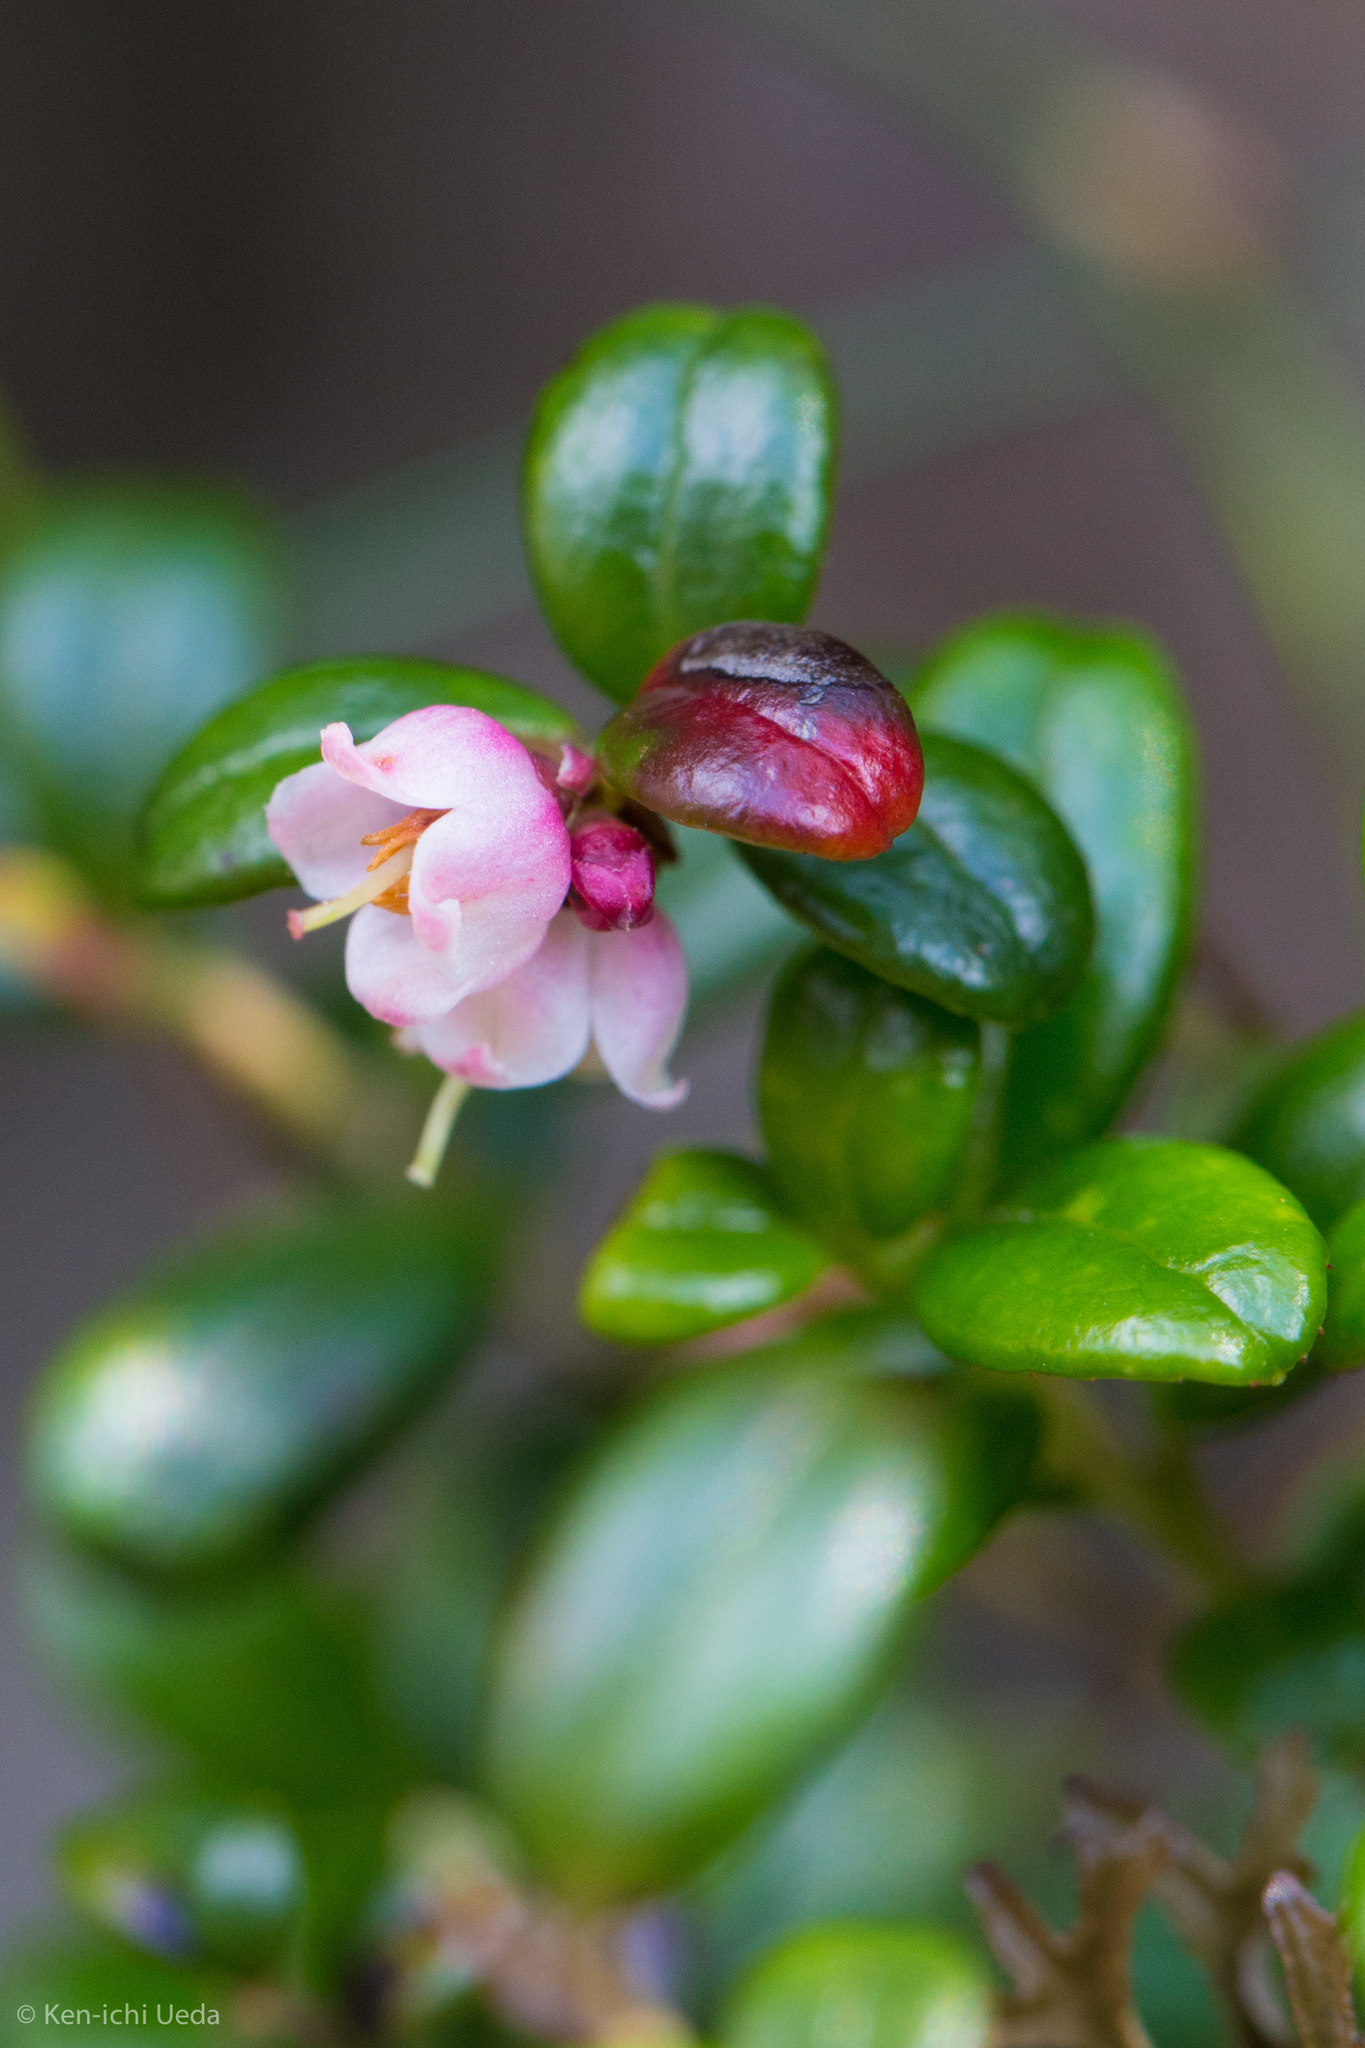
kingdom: Plantae
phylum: Tracheophyta
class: Magnoliopsida
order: Ericales
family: Ericaceae
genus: Vaccinium
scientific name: Vaccinium vitis-idaea
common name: Cowberry
